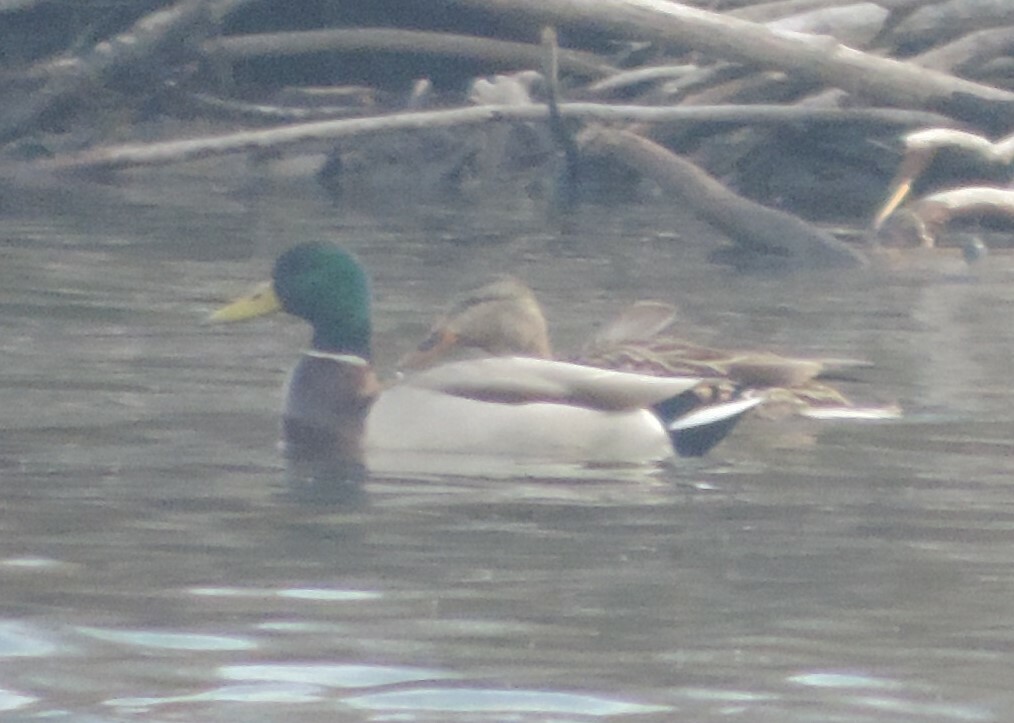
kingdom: Animalia
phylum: Chordata
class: Aves
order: Anseriformes
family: Anatidae
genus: Anas
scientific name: Anas platyrhynchos
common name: Mallard
